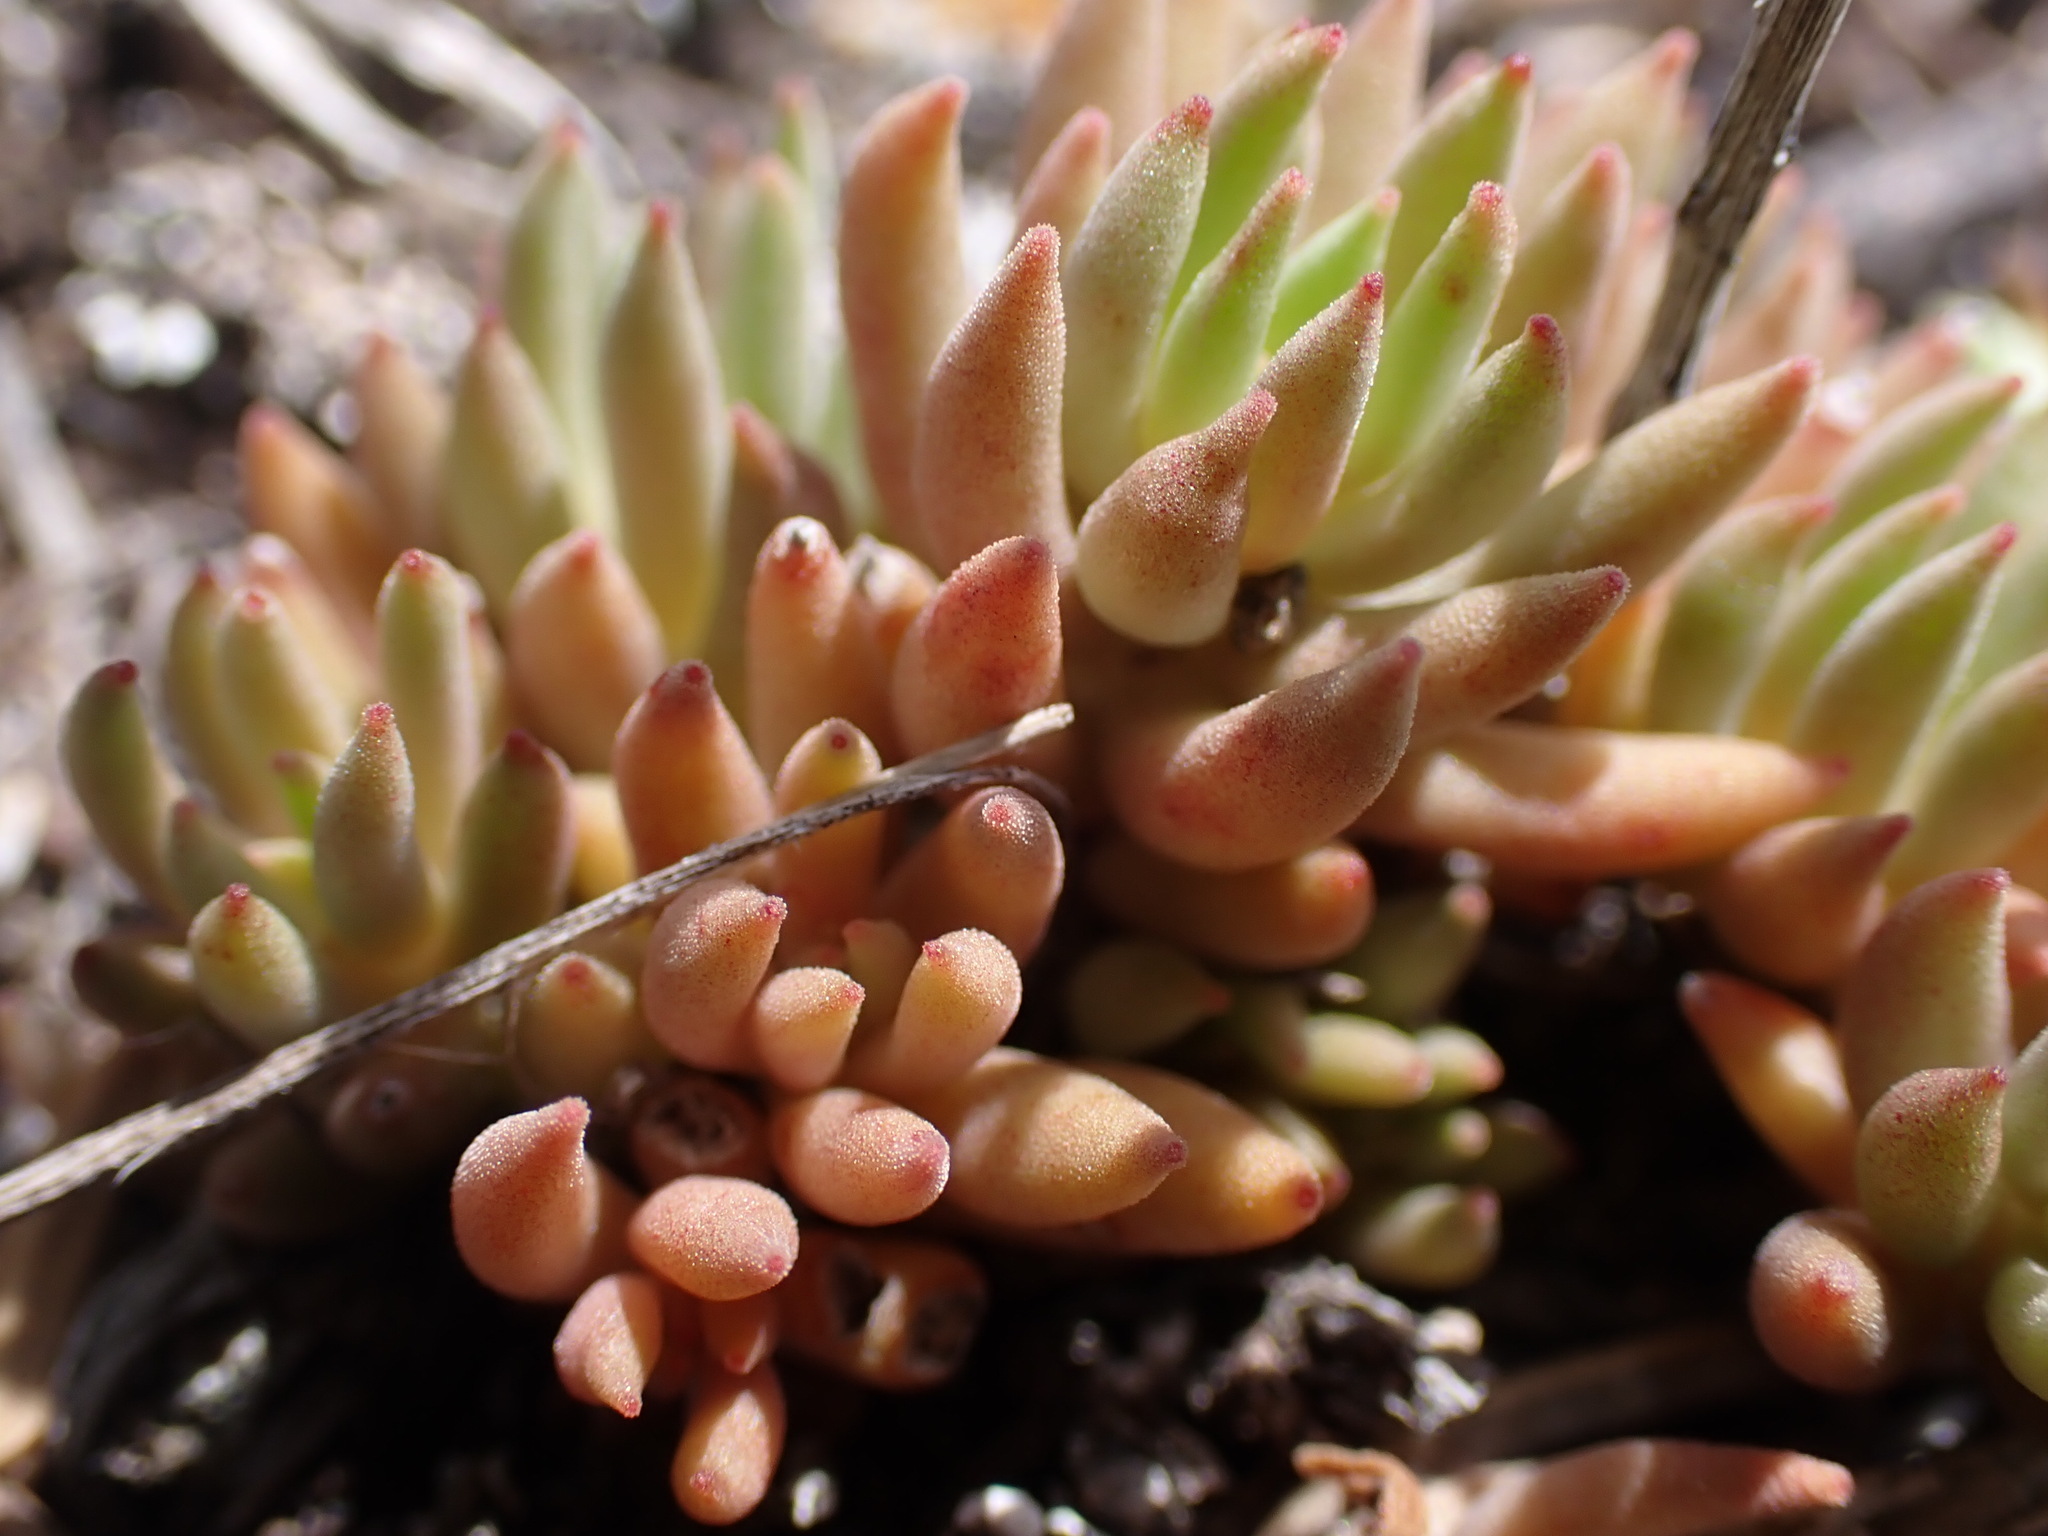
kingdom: Plantae
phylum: Tracheophyta
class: Magnoliopsida
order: Saxifragales
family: Crassulaceae
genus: Sedum
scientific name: Sedum lanceolatum
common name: Common stonecrop
